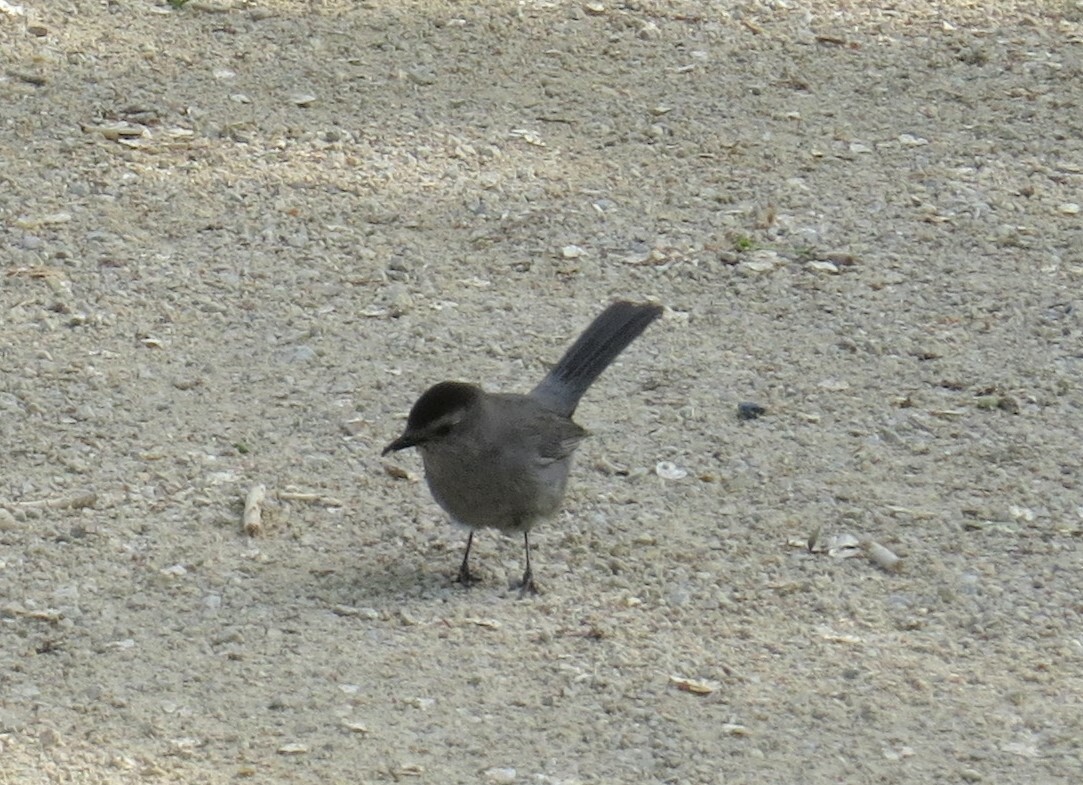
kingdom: Animalia
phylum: Chordata
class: Aves
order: Passeriformes
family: Mimidae
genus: Dumetella
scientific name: Dumetella carolinensis
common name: Gray catbird
